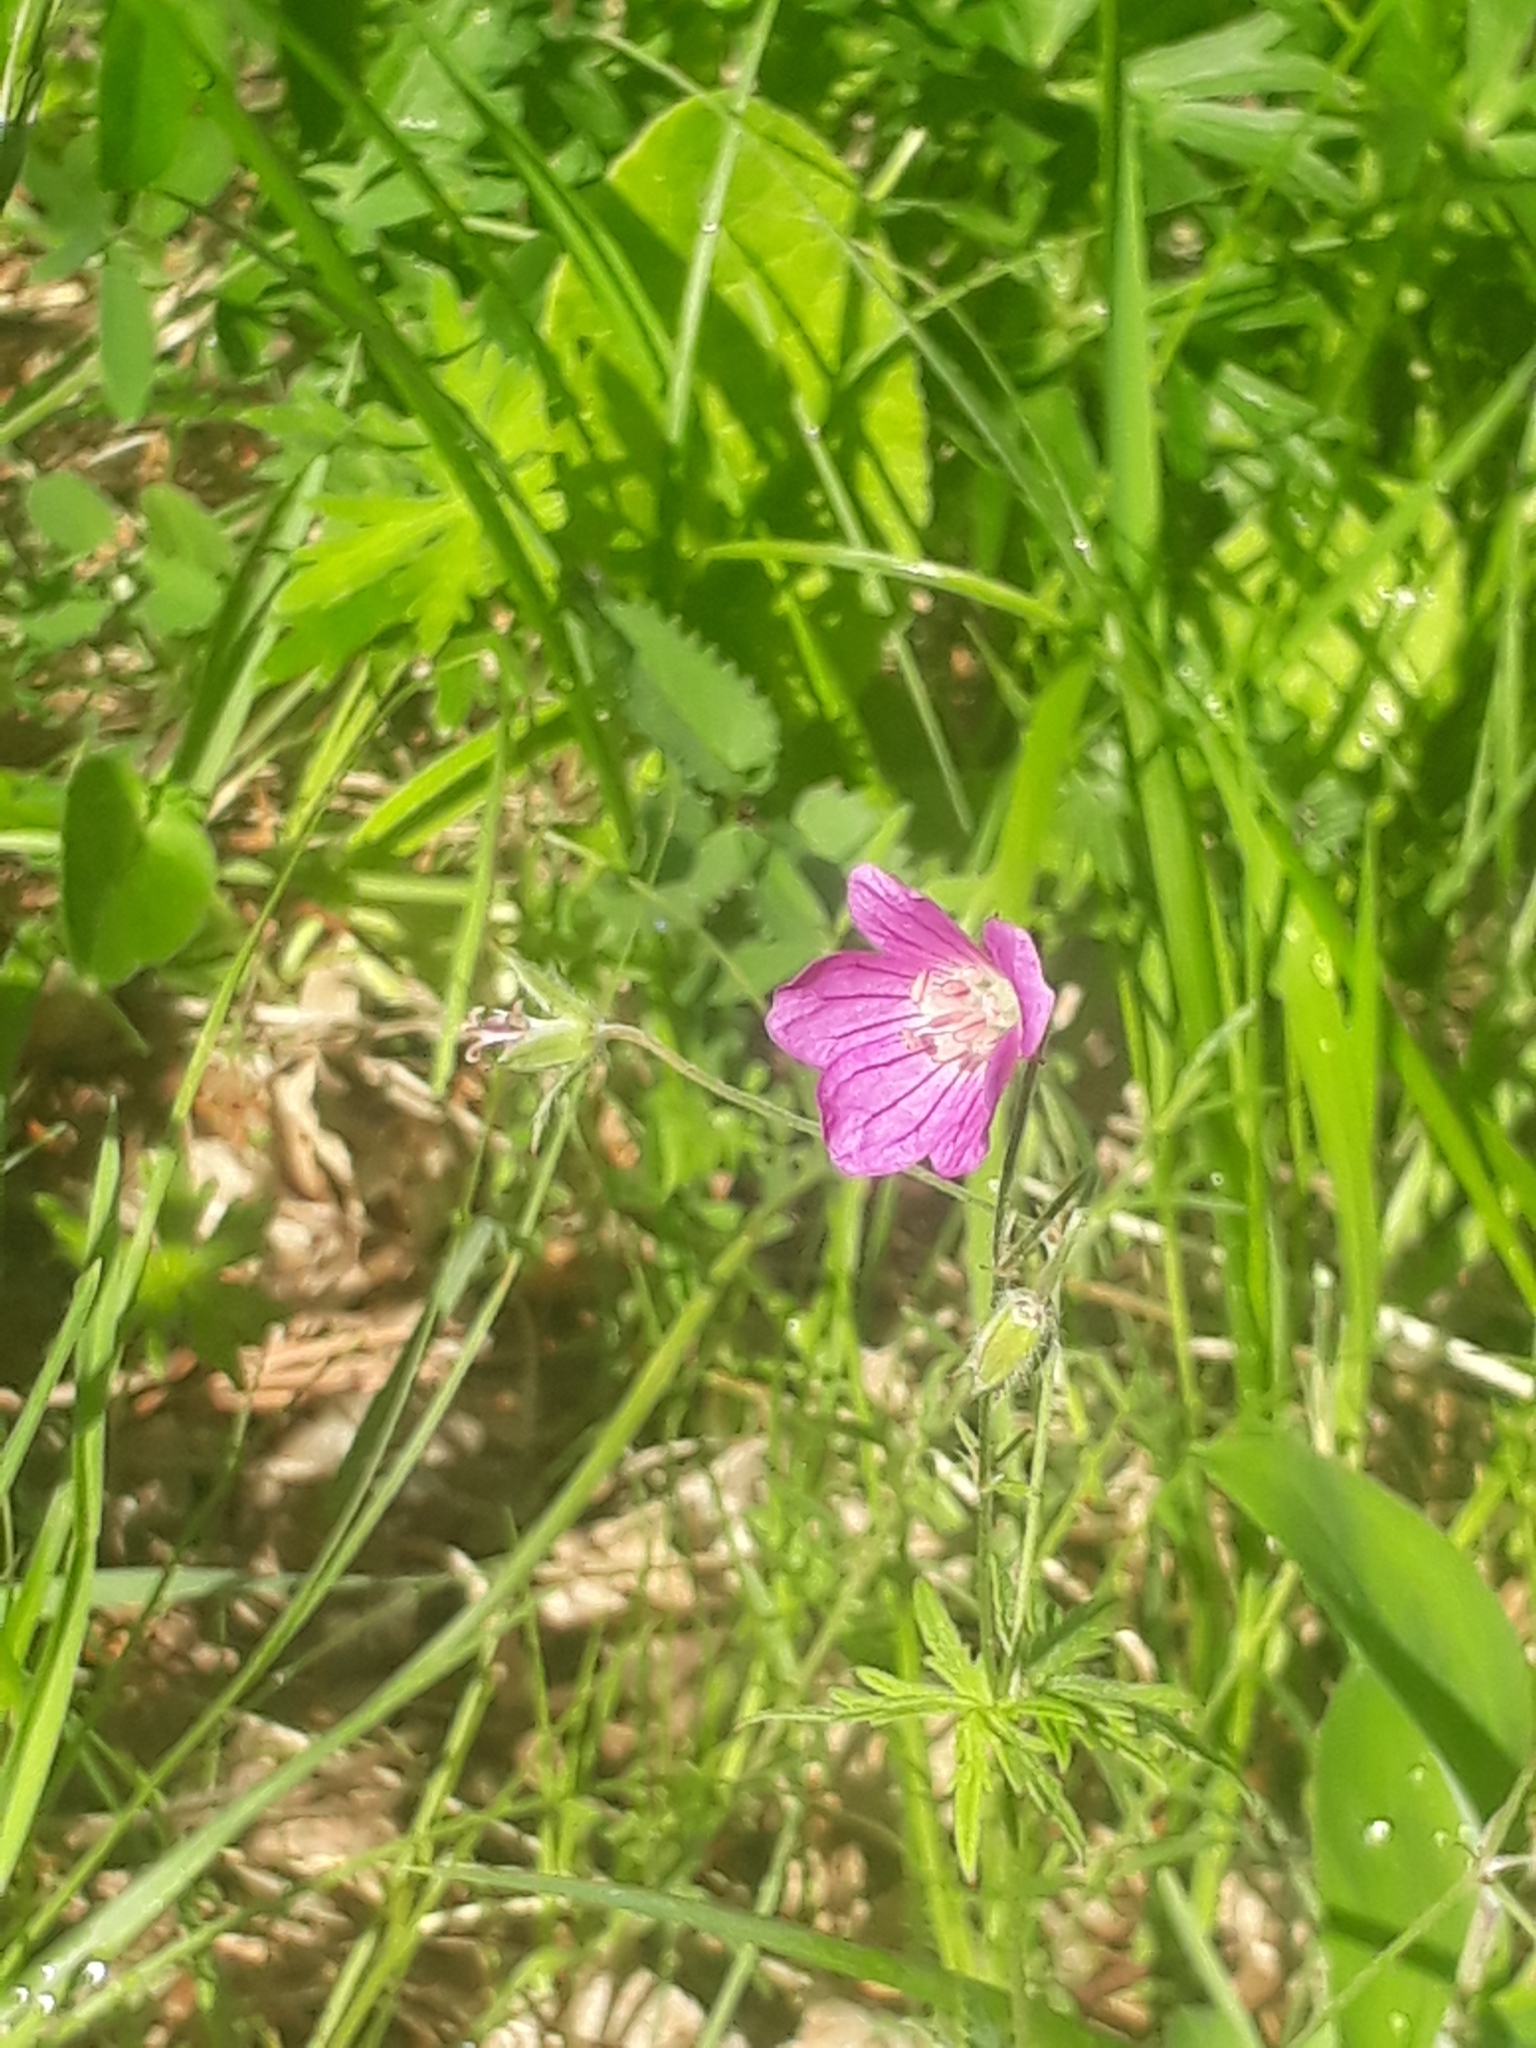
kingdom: Plantae
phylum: Tracheophyta
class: Magnoliopsida
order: Geraniales
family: Geraniaceae
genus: Geranium
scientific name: Geranium pseudosibiricum
